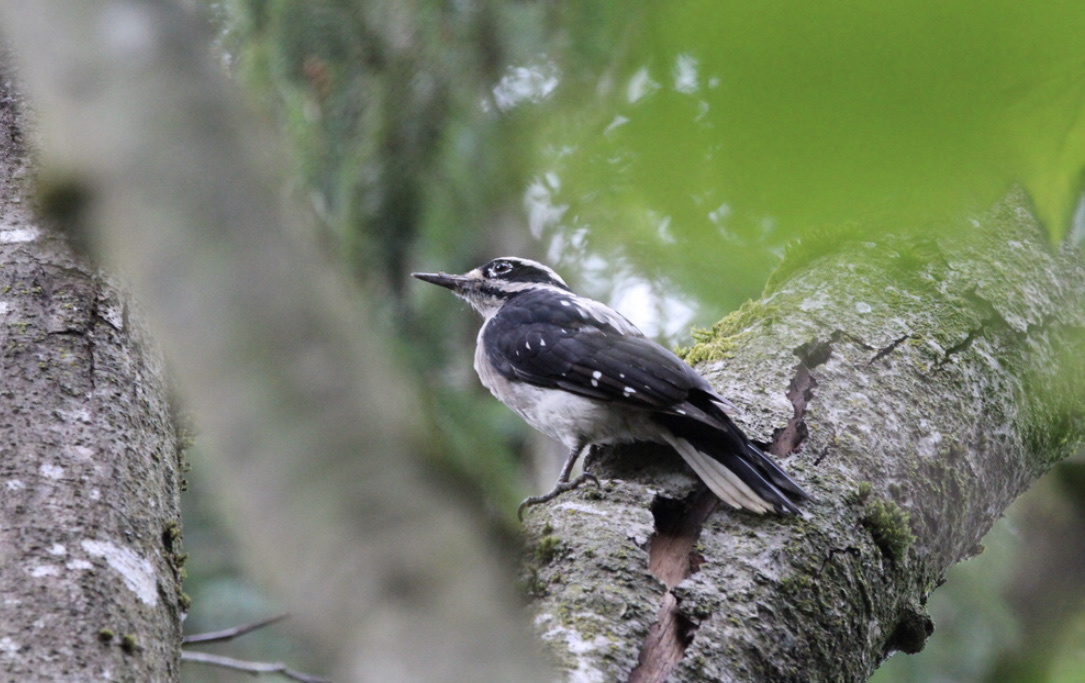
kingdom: Animalia
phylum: Chordata
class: Aves
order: Piciformes
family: Picidae
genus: Leuconotopicus
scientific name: Leuconotopicus villosus
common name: Hairy woodpecker
